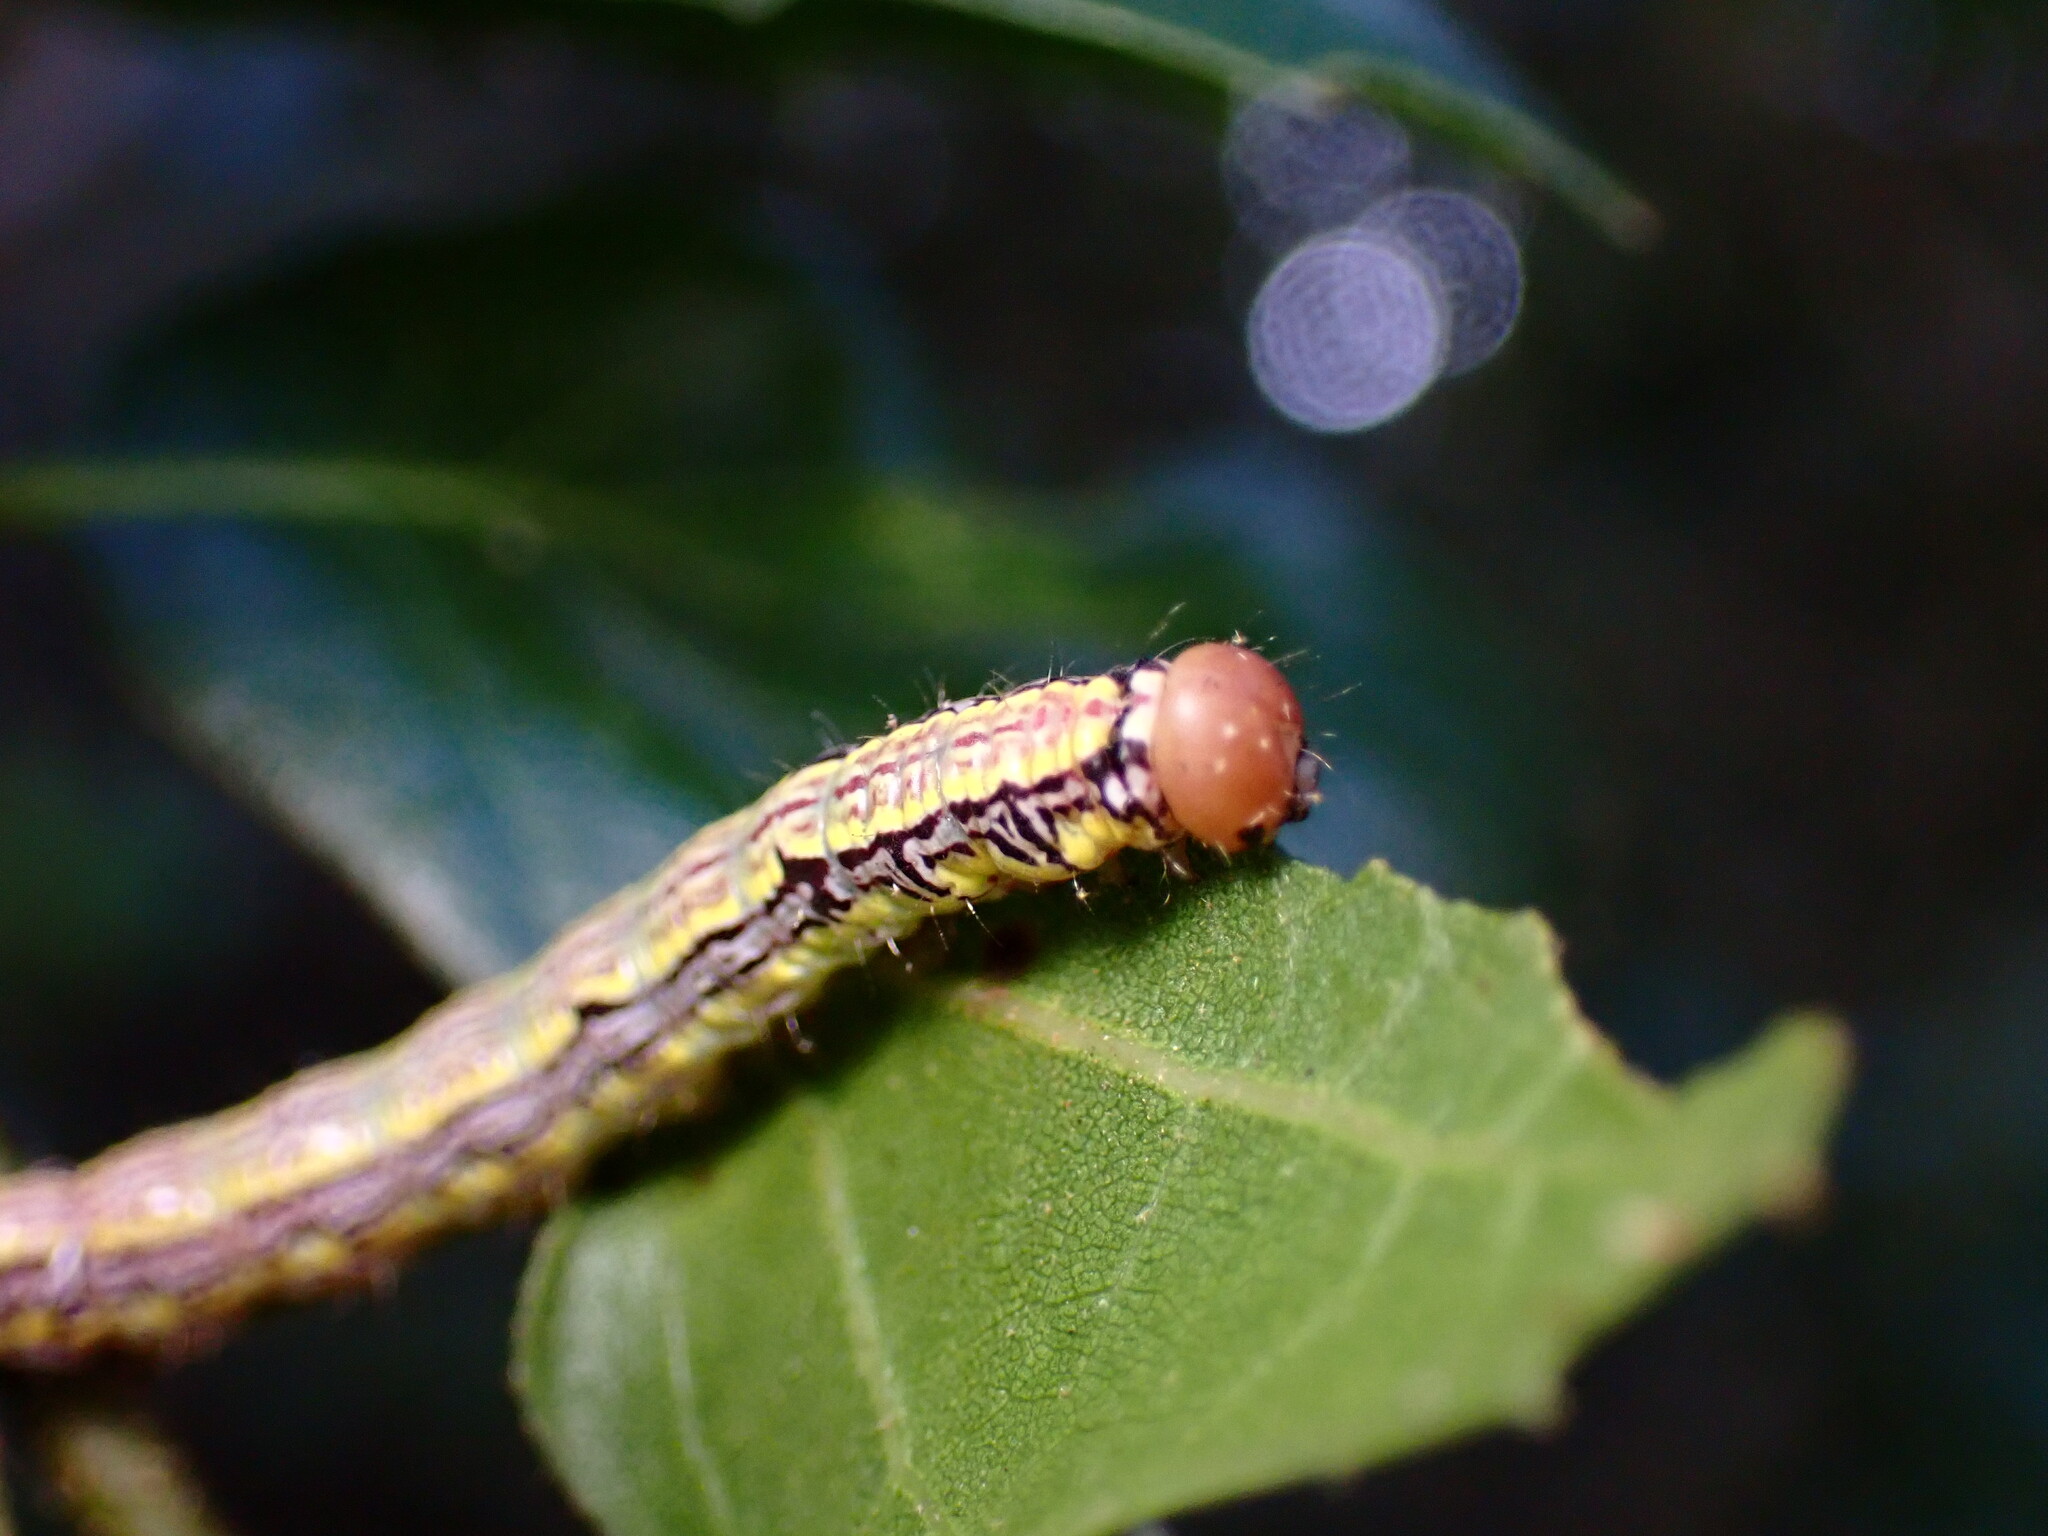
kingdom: Animalia
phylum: Arthropoda
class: Insecta
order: Lepidoptera
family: Notodontidae
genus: Phryganidia
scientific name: Phryganidia californica
